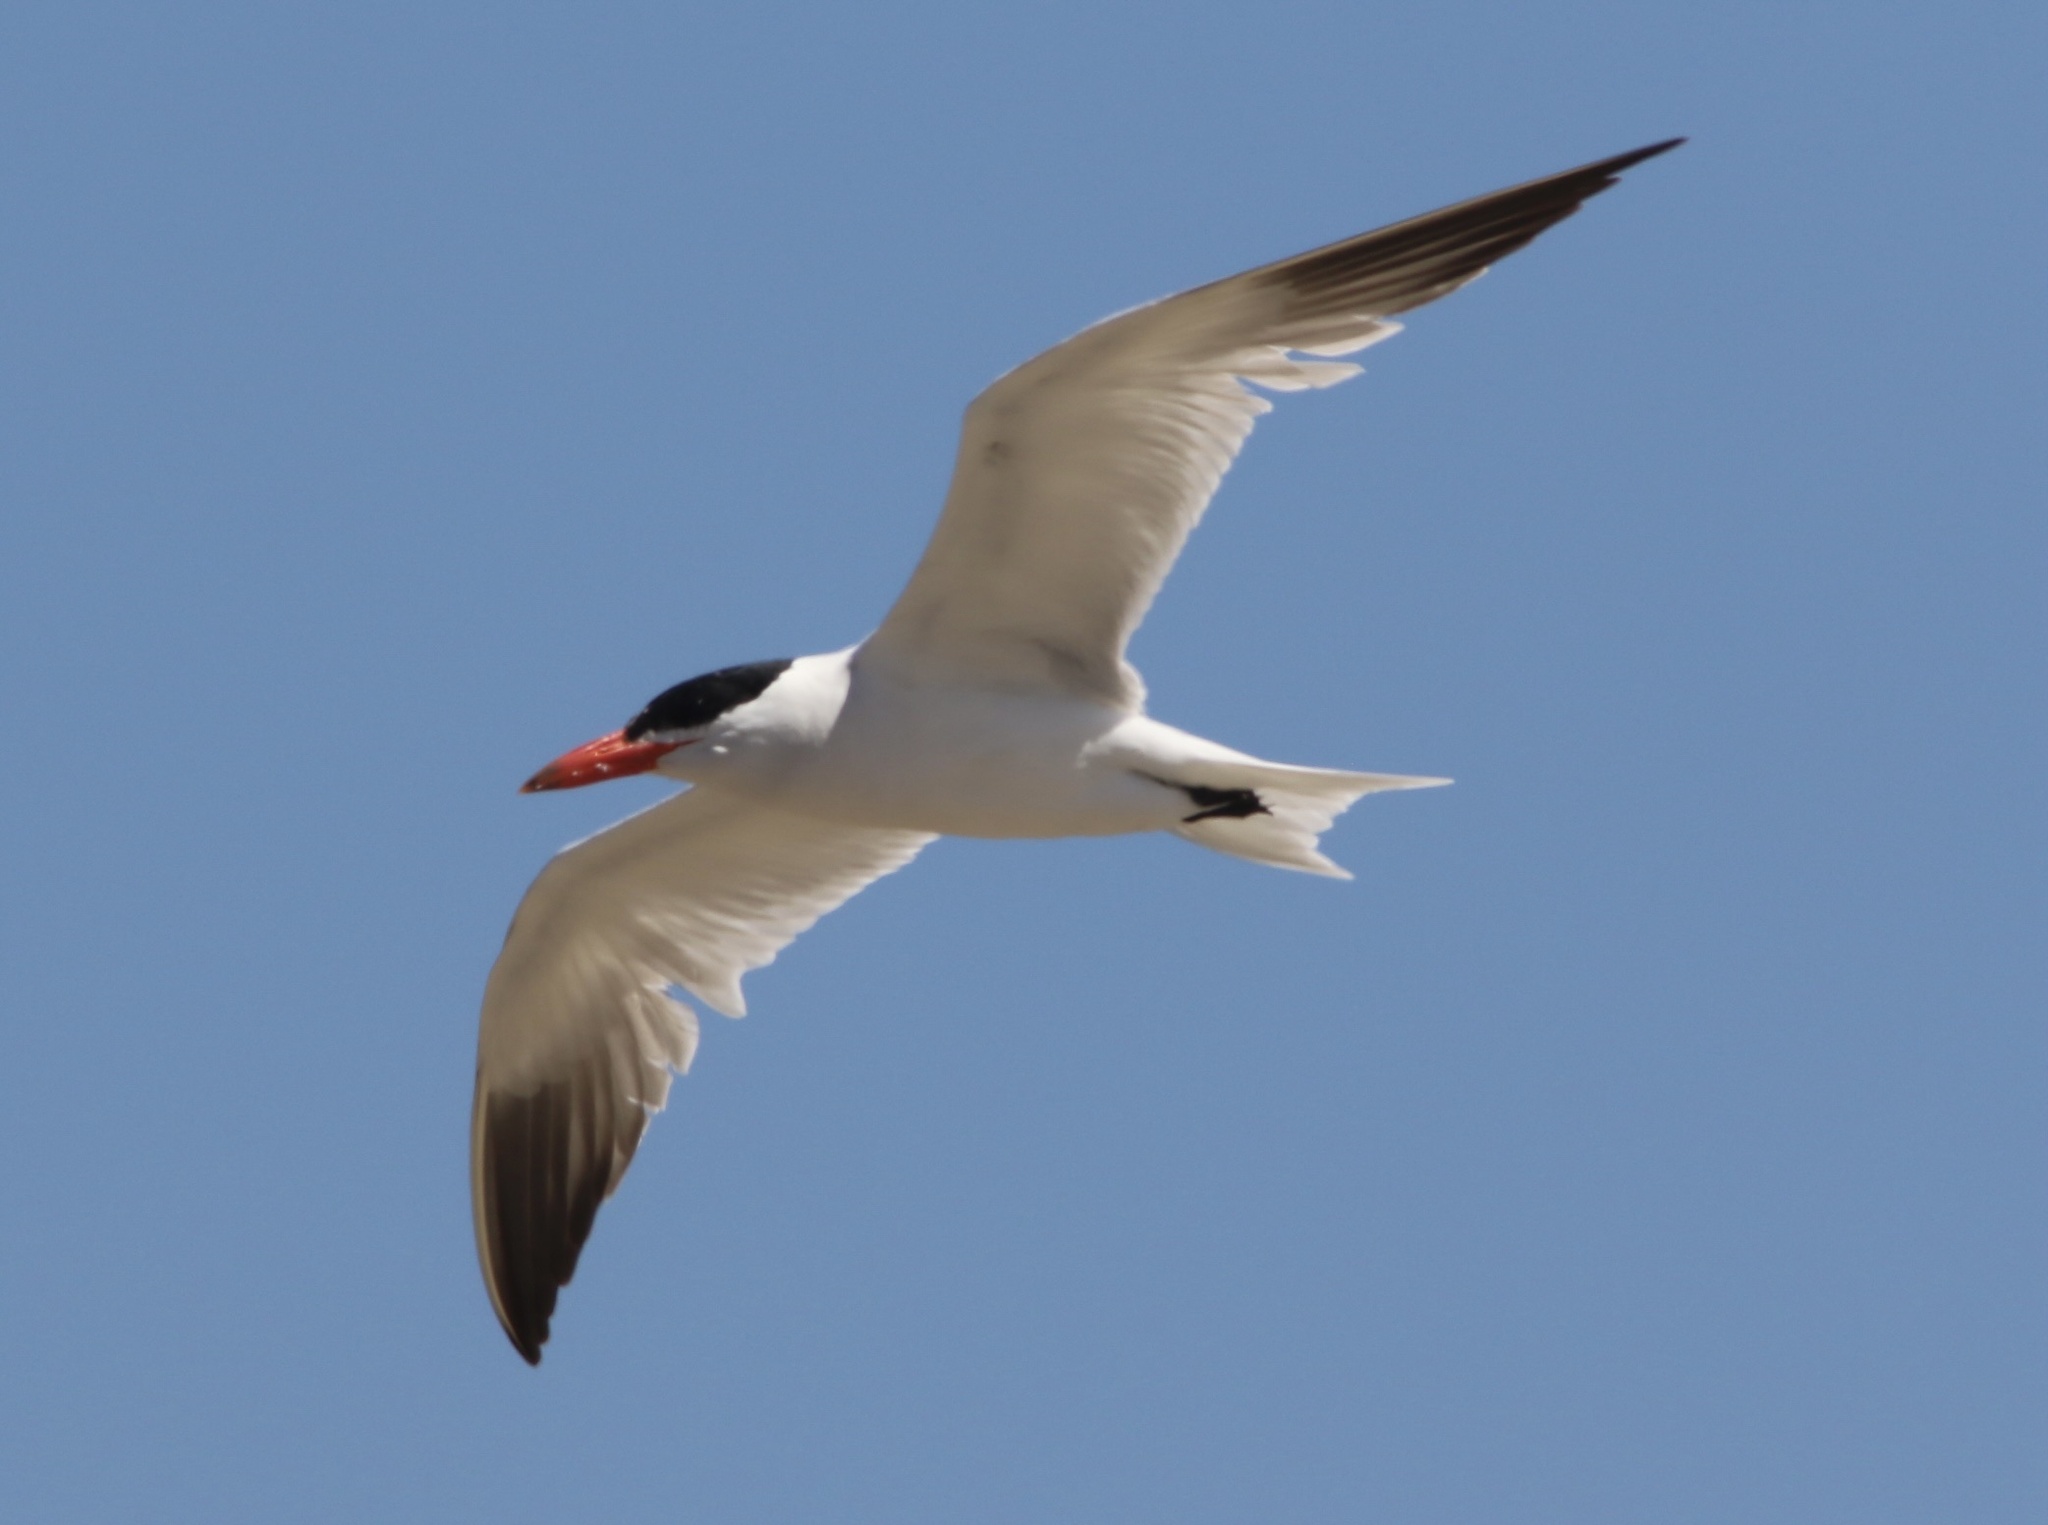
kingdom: Animalia
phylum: Chordata
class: Aves
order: Charadriiformes
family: Laridae
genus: Hydroprogne
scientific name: Hydroprogne caspia
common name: Caspian tern
